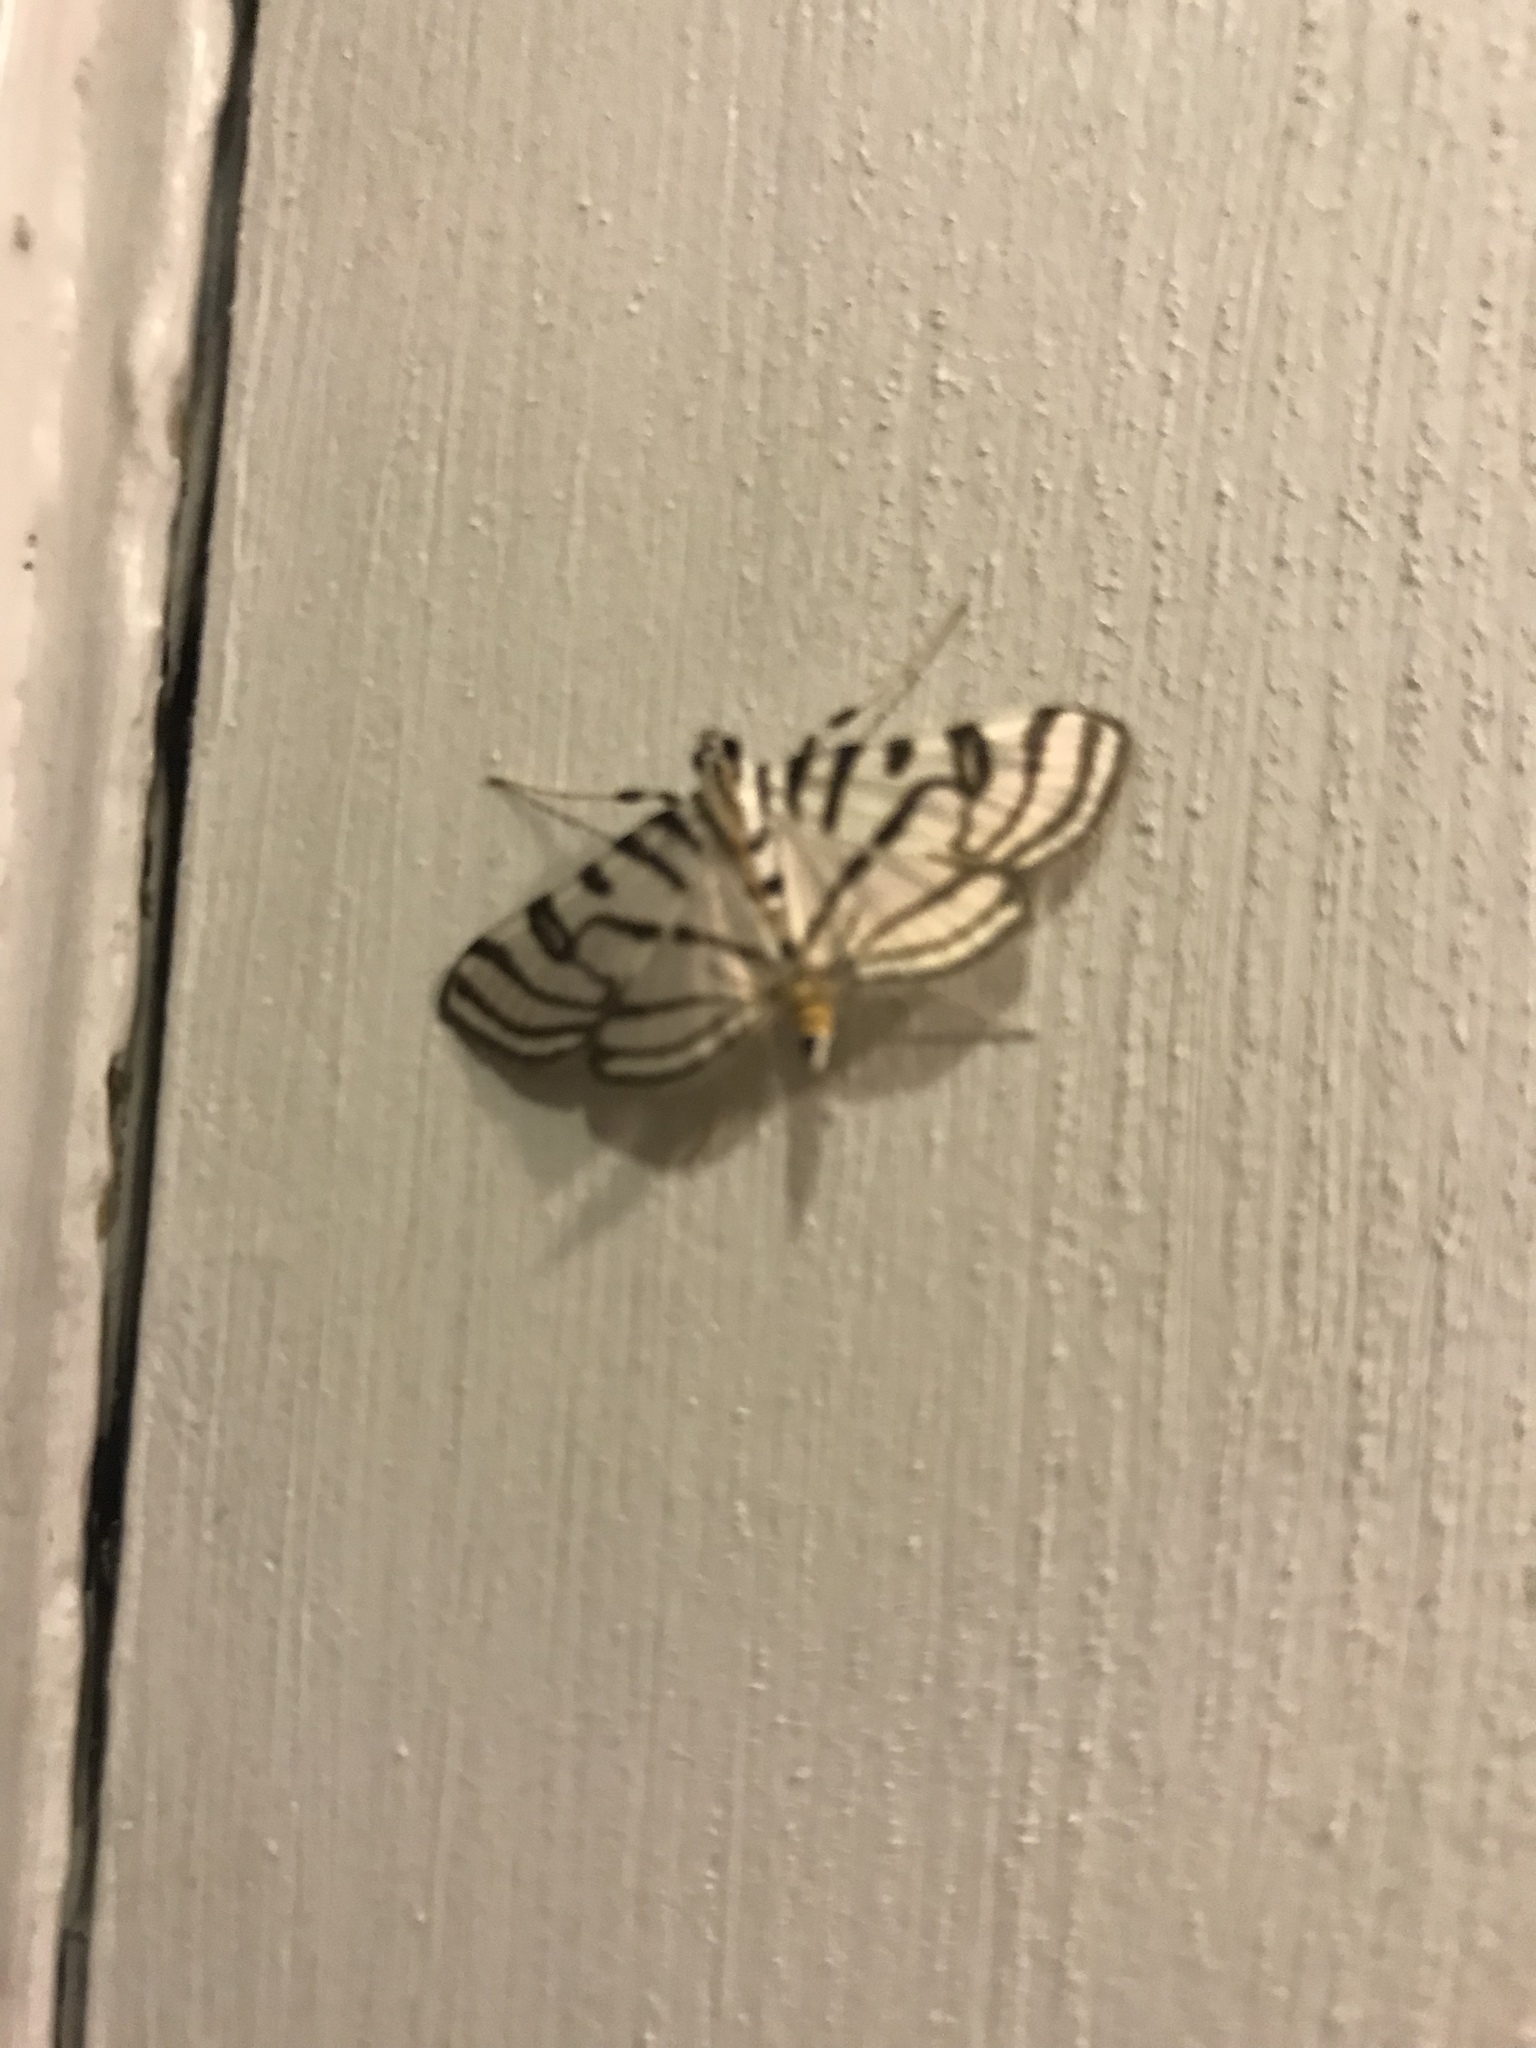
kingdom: Animalia
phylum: Arthropoda
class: Insecta
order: Lepidoptera
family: Crambidae
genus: Conchylodes
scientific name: Conchylodes ovulalis
